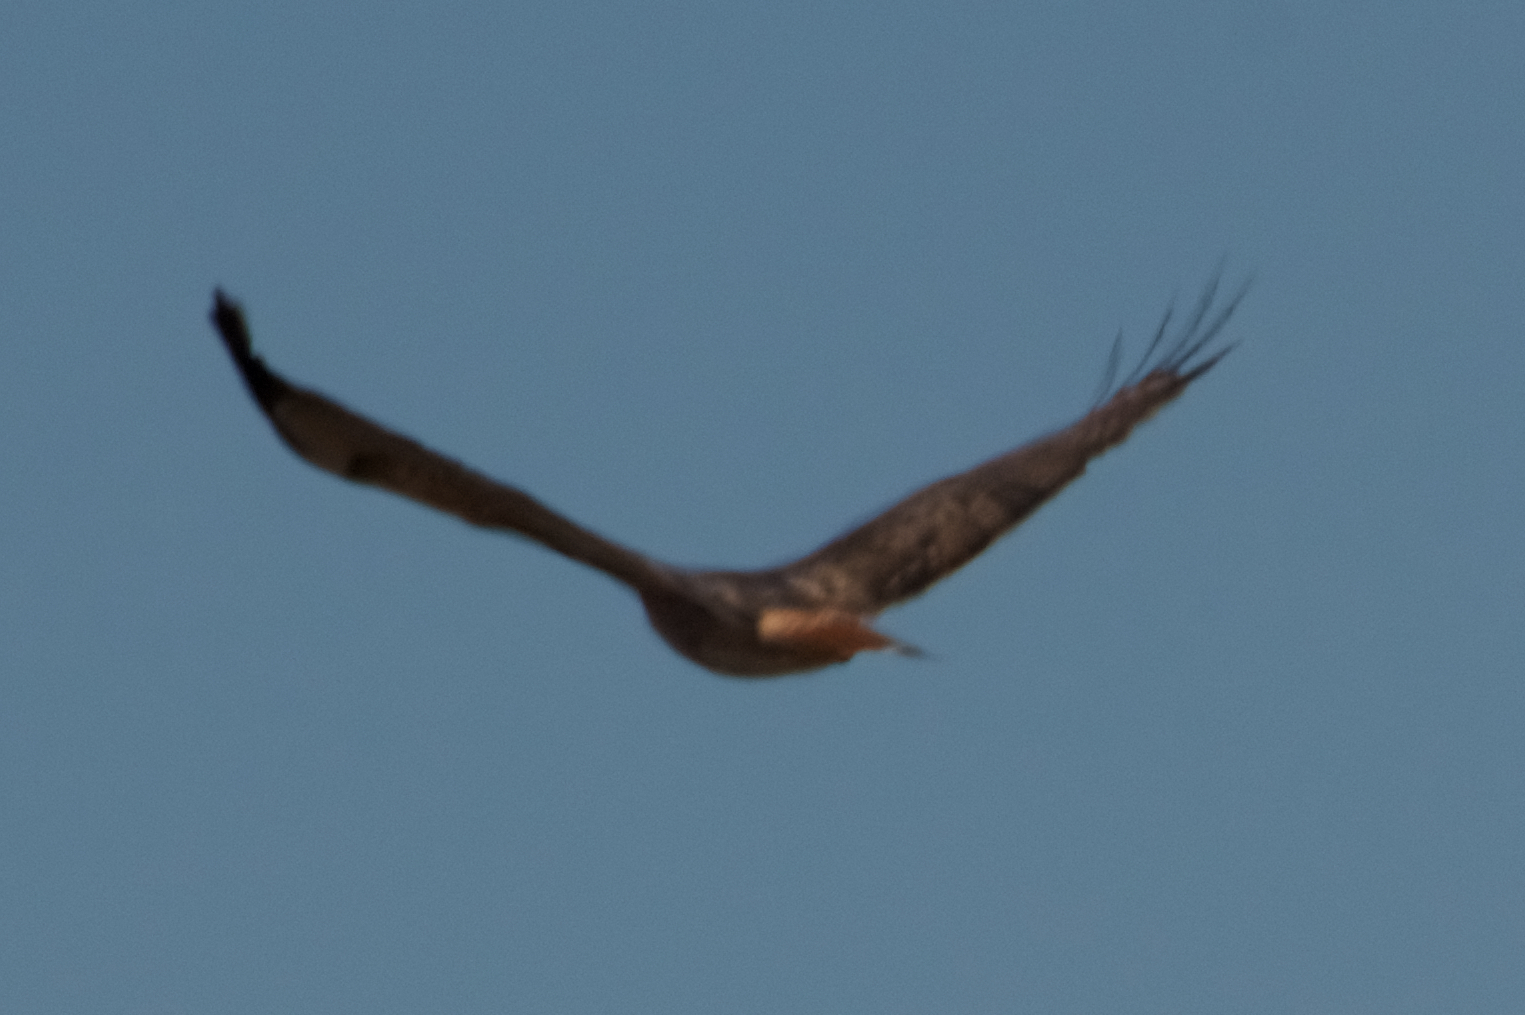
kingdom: Animalia
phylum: Chordata
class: Aves
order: Accipitriformes
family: Accipitridae
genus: Buteo
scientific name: Buteo jamaicensis
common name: Red-tailed hawk
